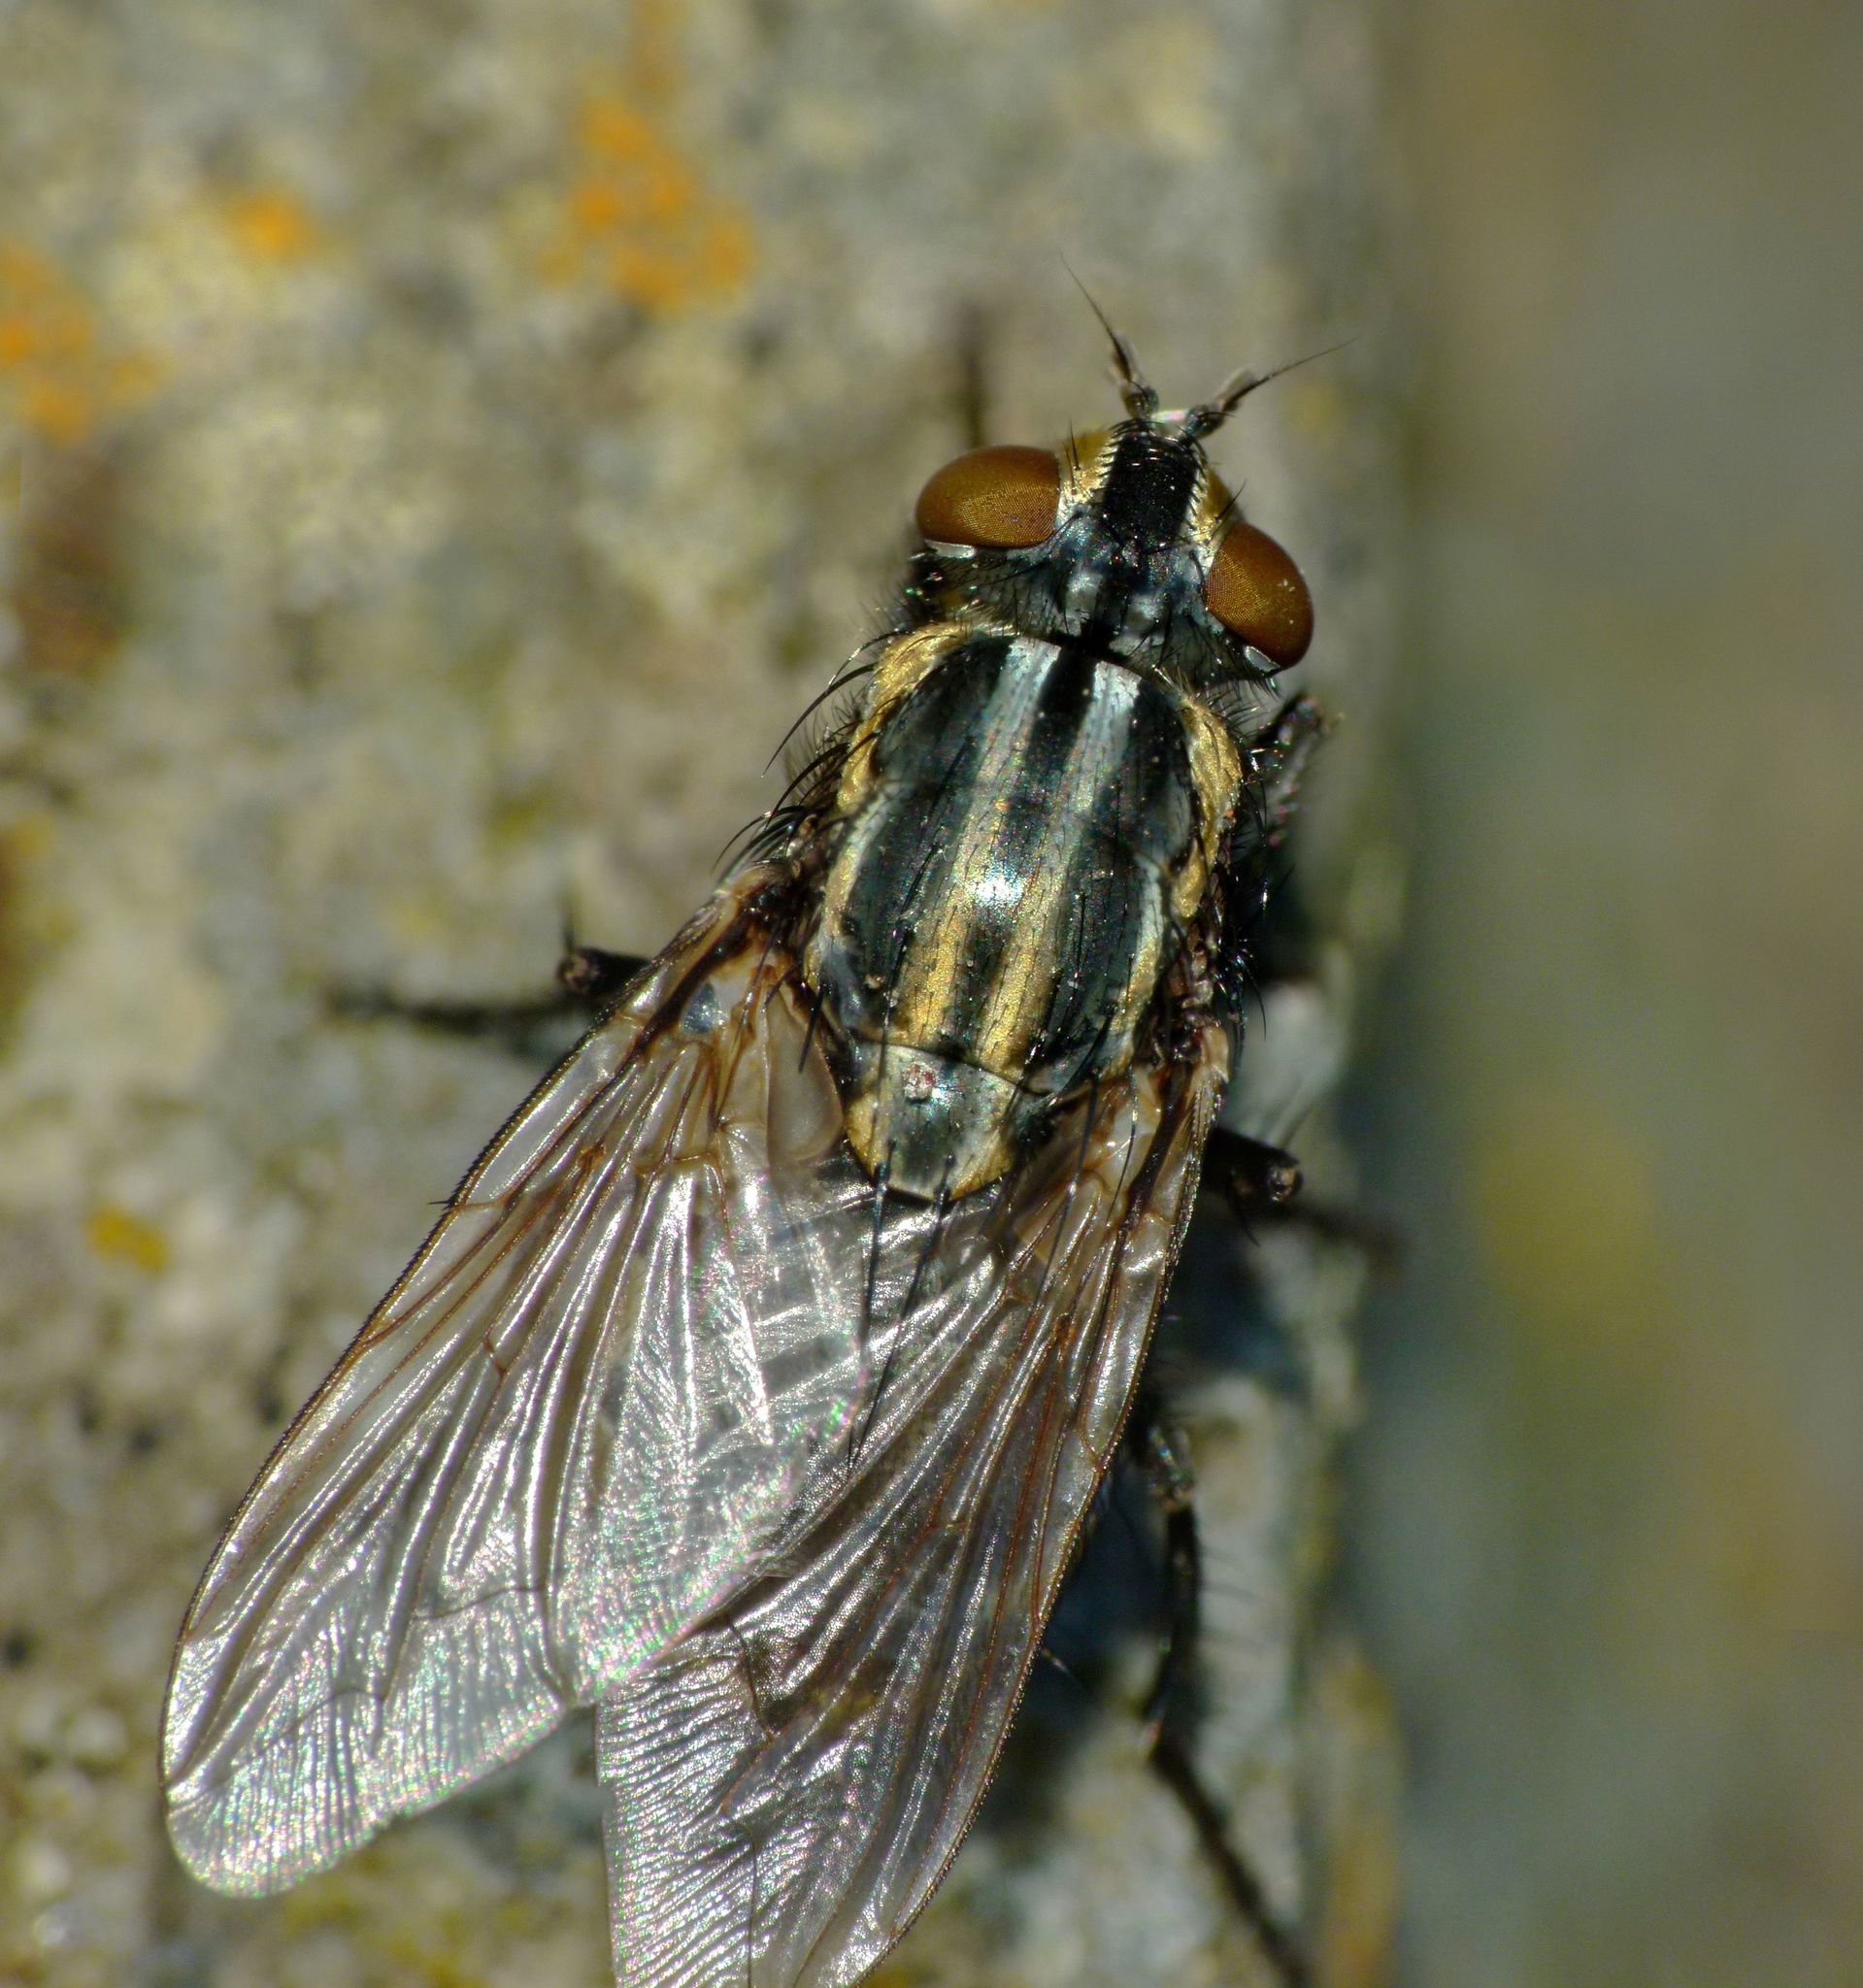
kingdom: Animalia
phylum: Arthropoda
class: Insecta
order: Diptera
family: Sarcophagidae
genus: Oxysarcodexia
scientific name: Oxysarcodexia varia
